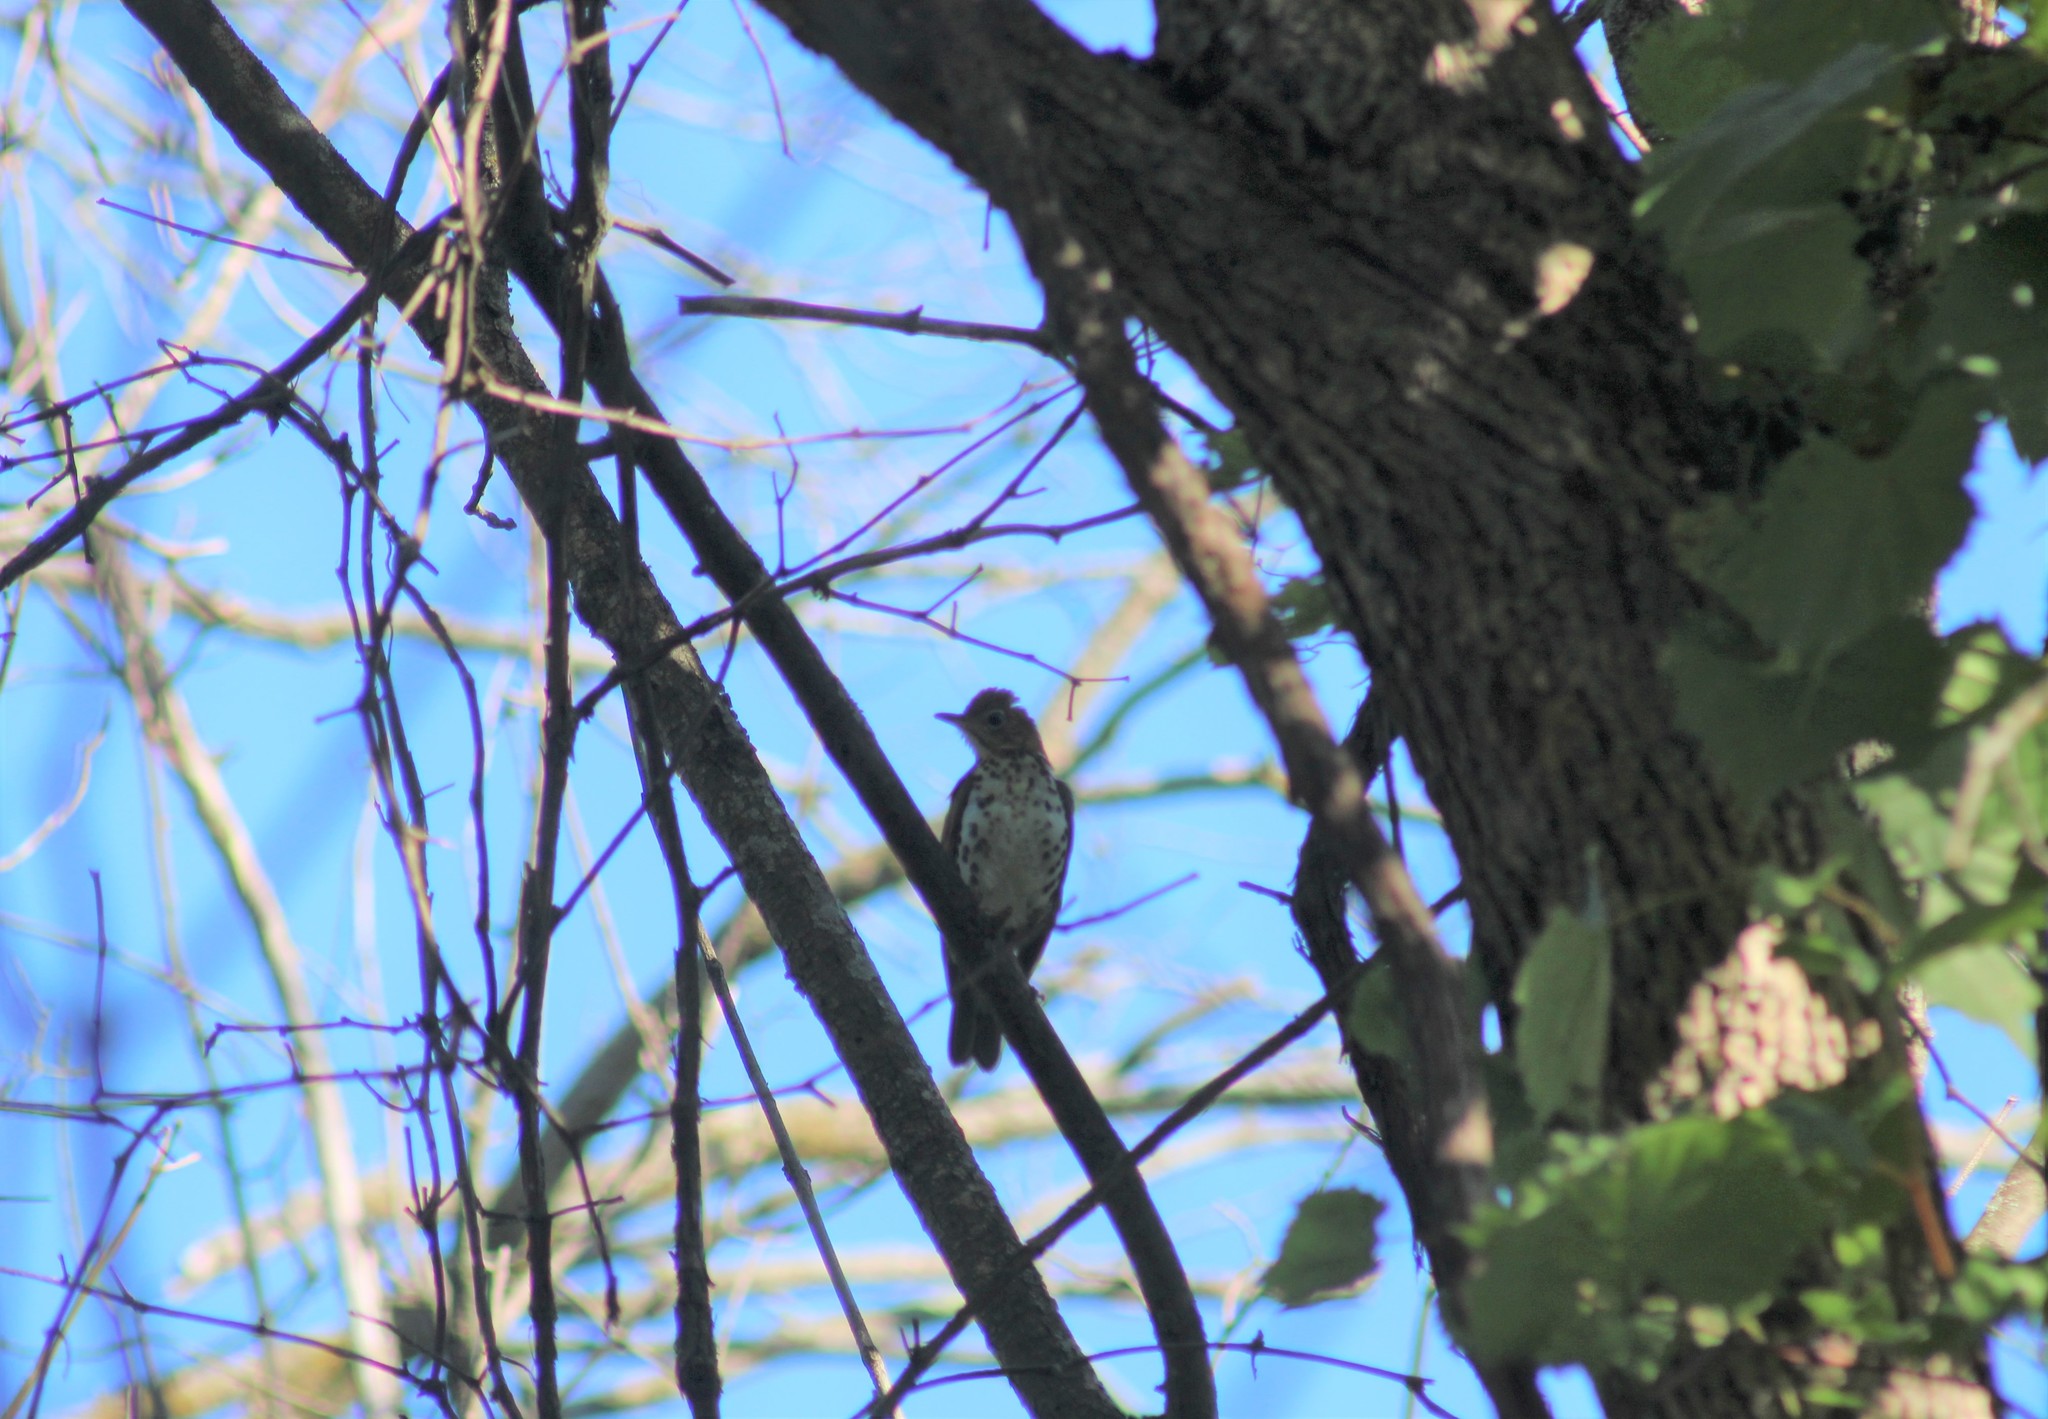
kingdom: Animalia
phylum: Chordata
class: Aves
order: Passeriformes
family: Turdidae
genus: Hylocichla
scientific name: Hylocichla mustelina
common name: Wood thrush
